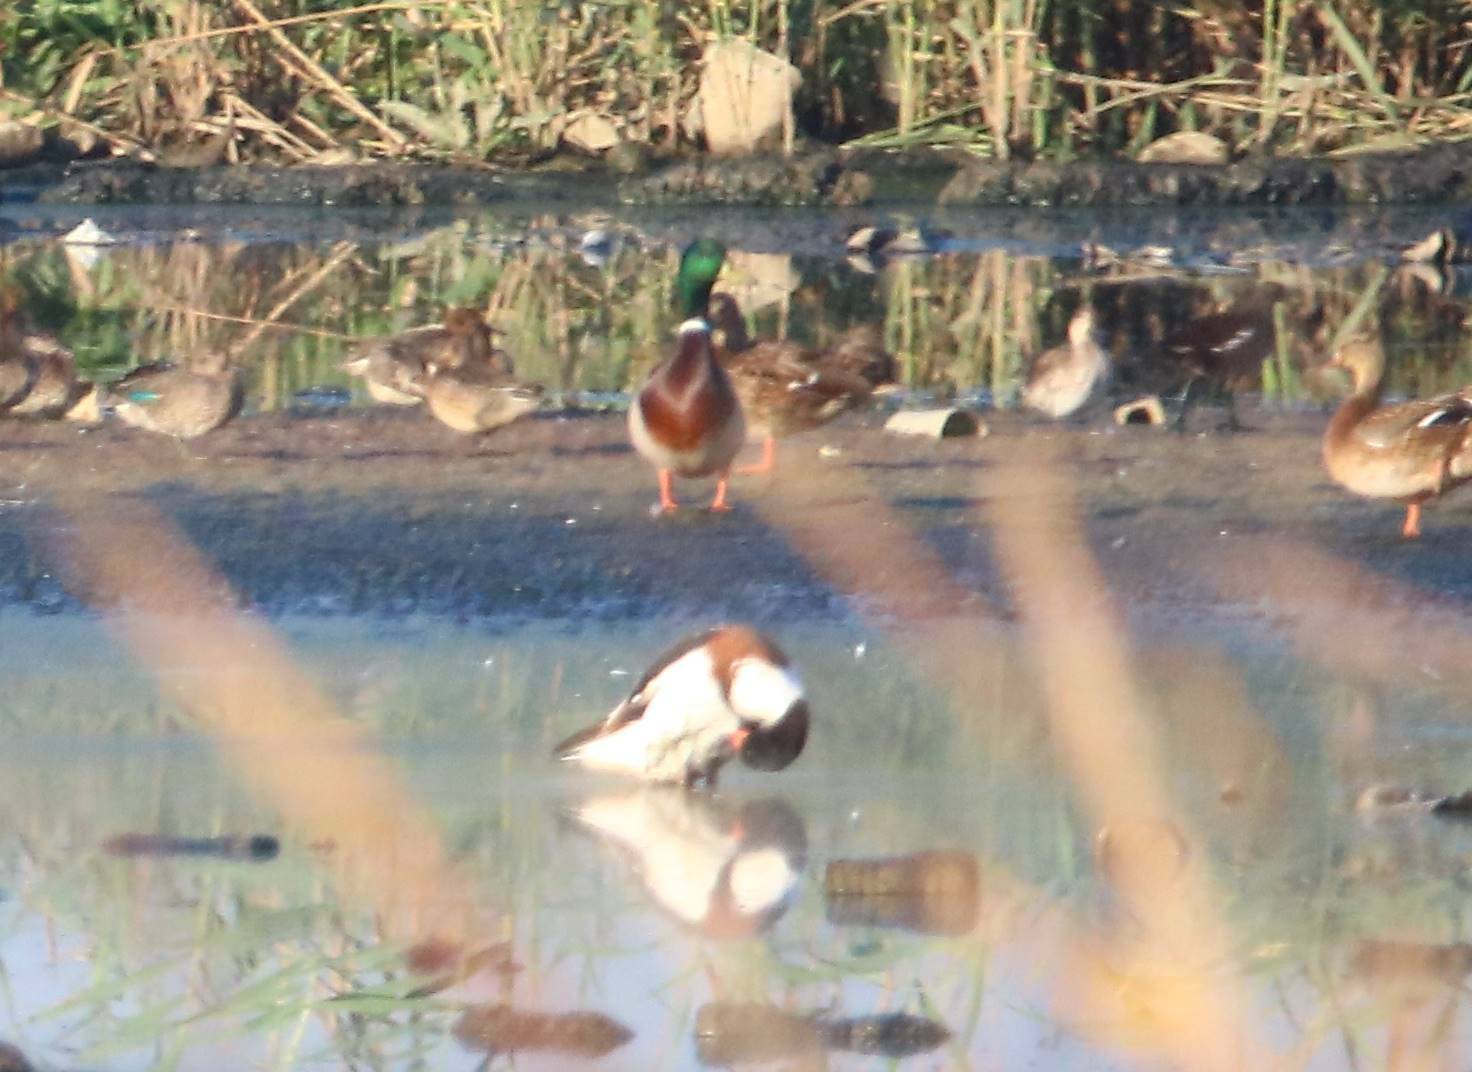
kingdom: Animalia
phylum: Chordata
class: Aves
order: Anseriformes
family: Anatidae
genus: Tadorna
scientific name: Tadorna tadorna
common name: Common shelduck
